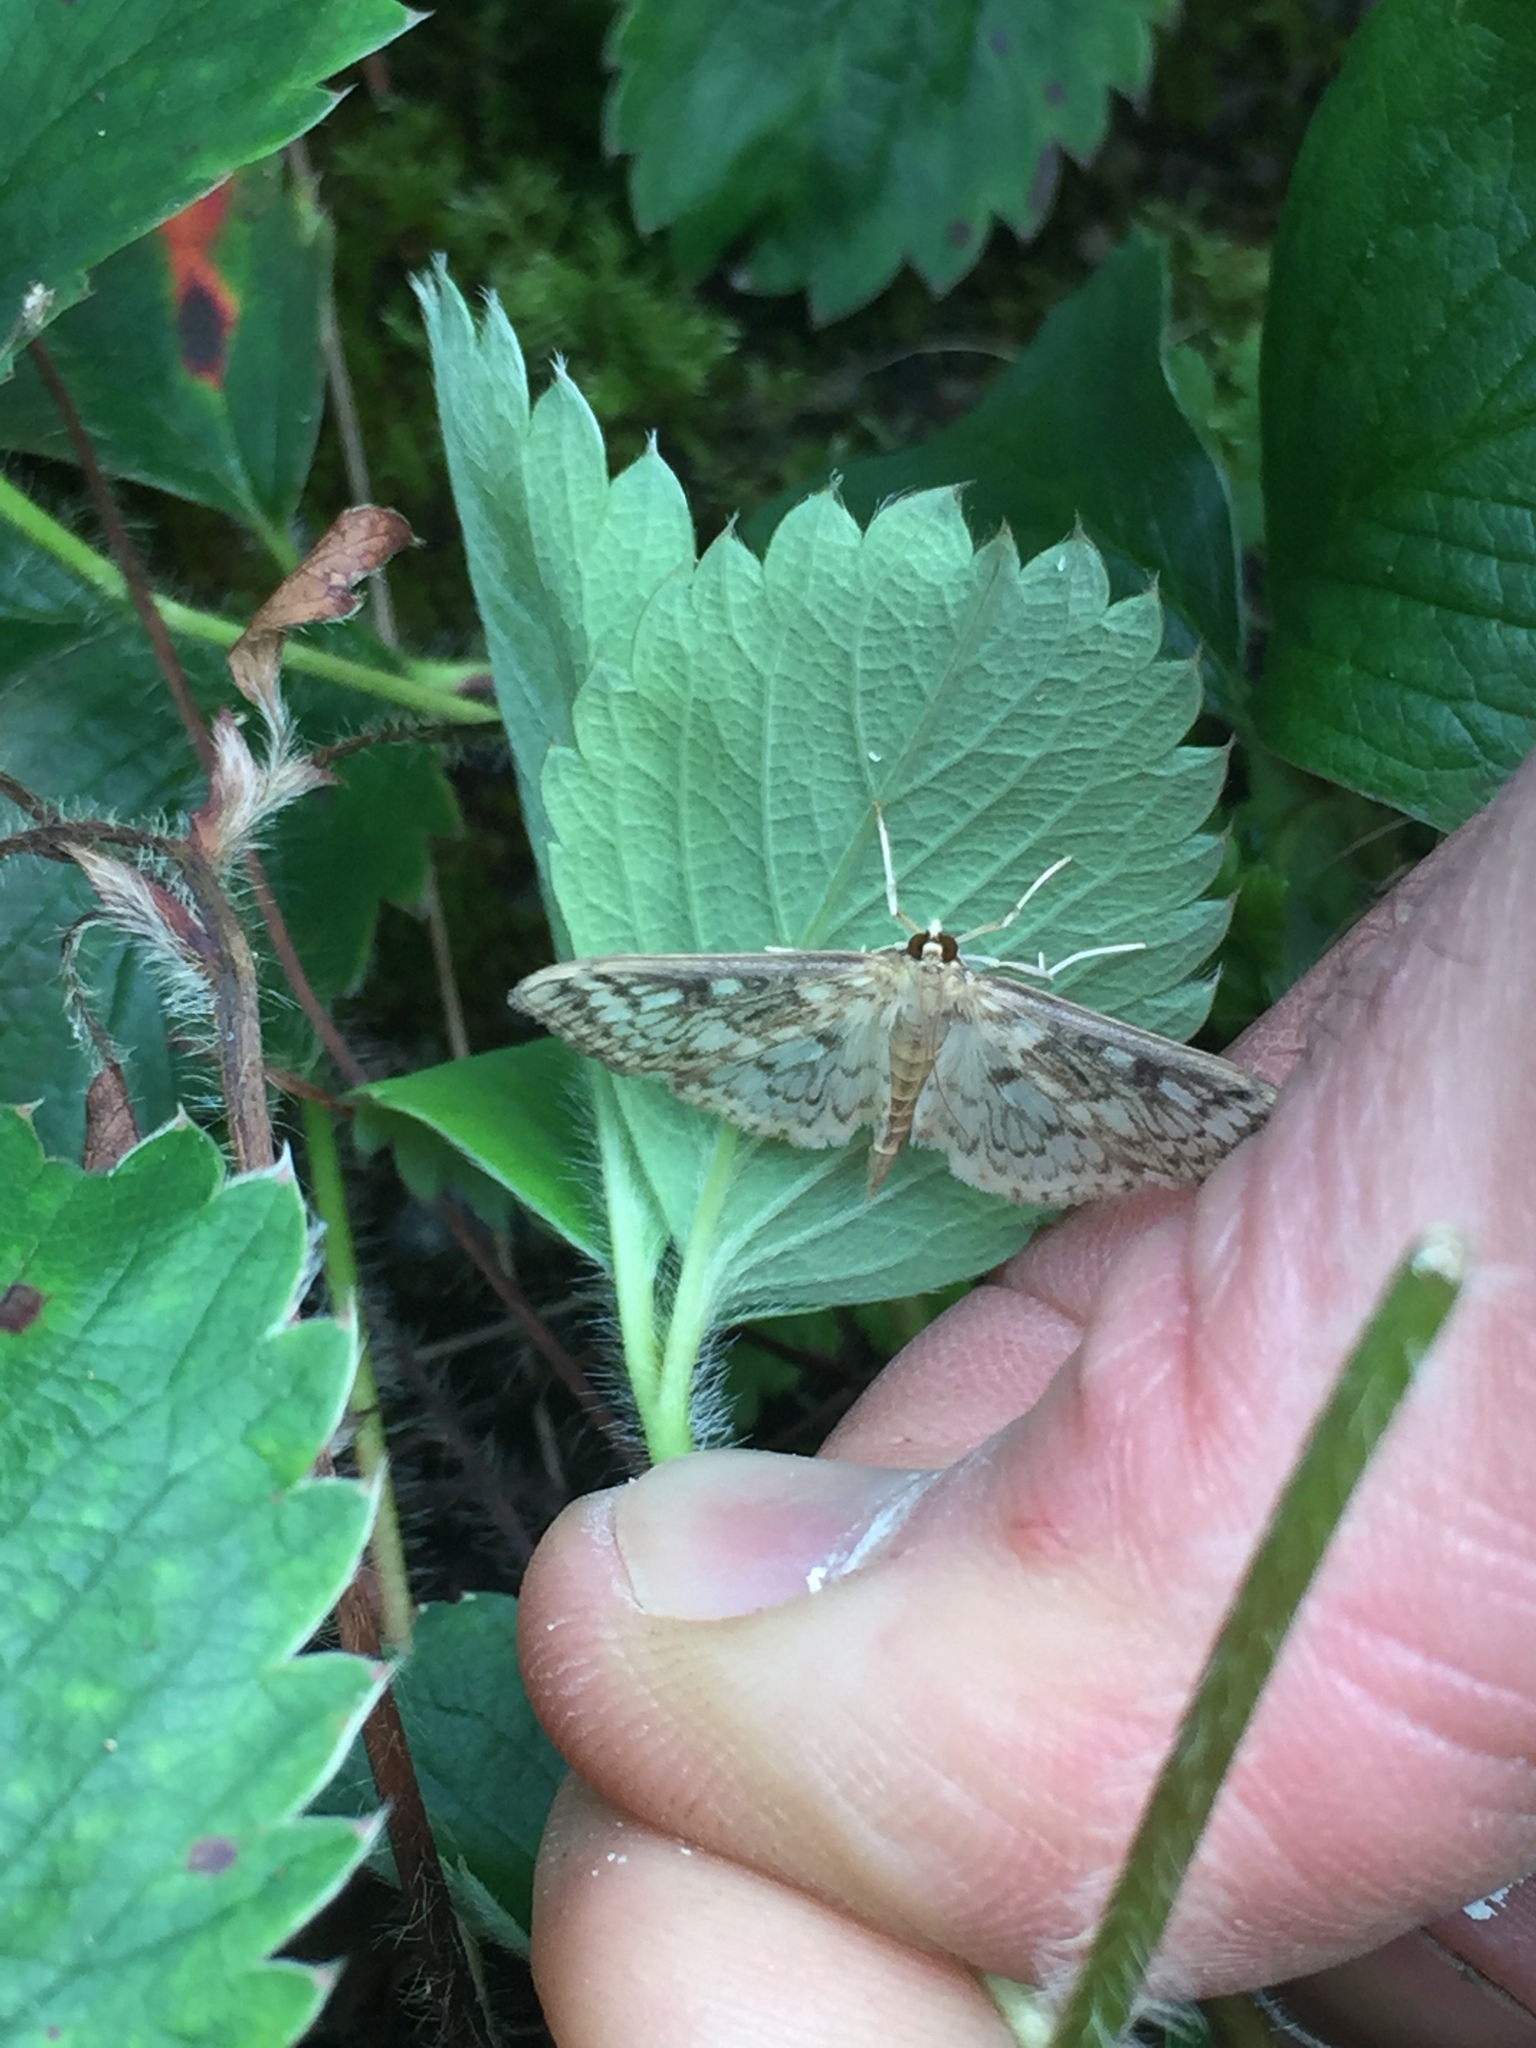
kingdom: Animalia
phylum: Arthropoda
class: Insecta
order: Lepidoptera
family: Crambidae
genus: Herpetogramma
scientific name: Herpetogramma aquilonalis
